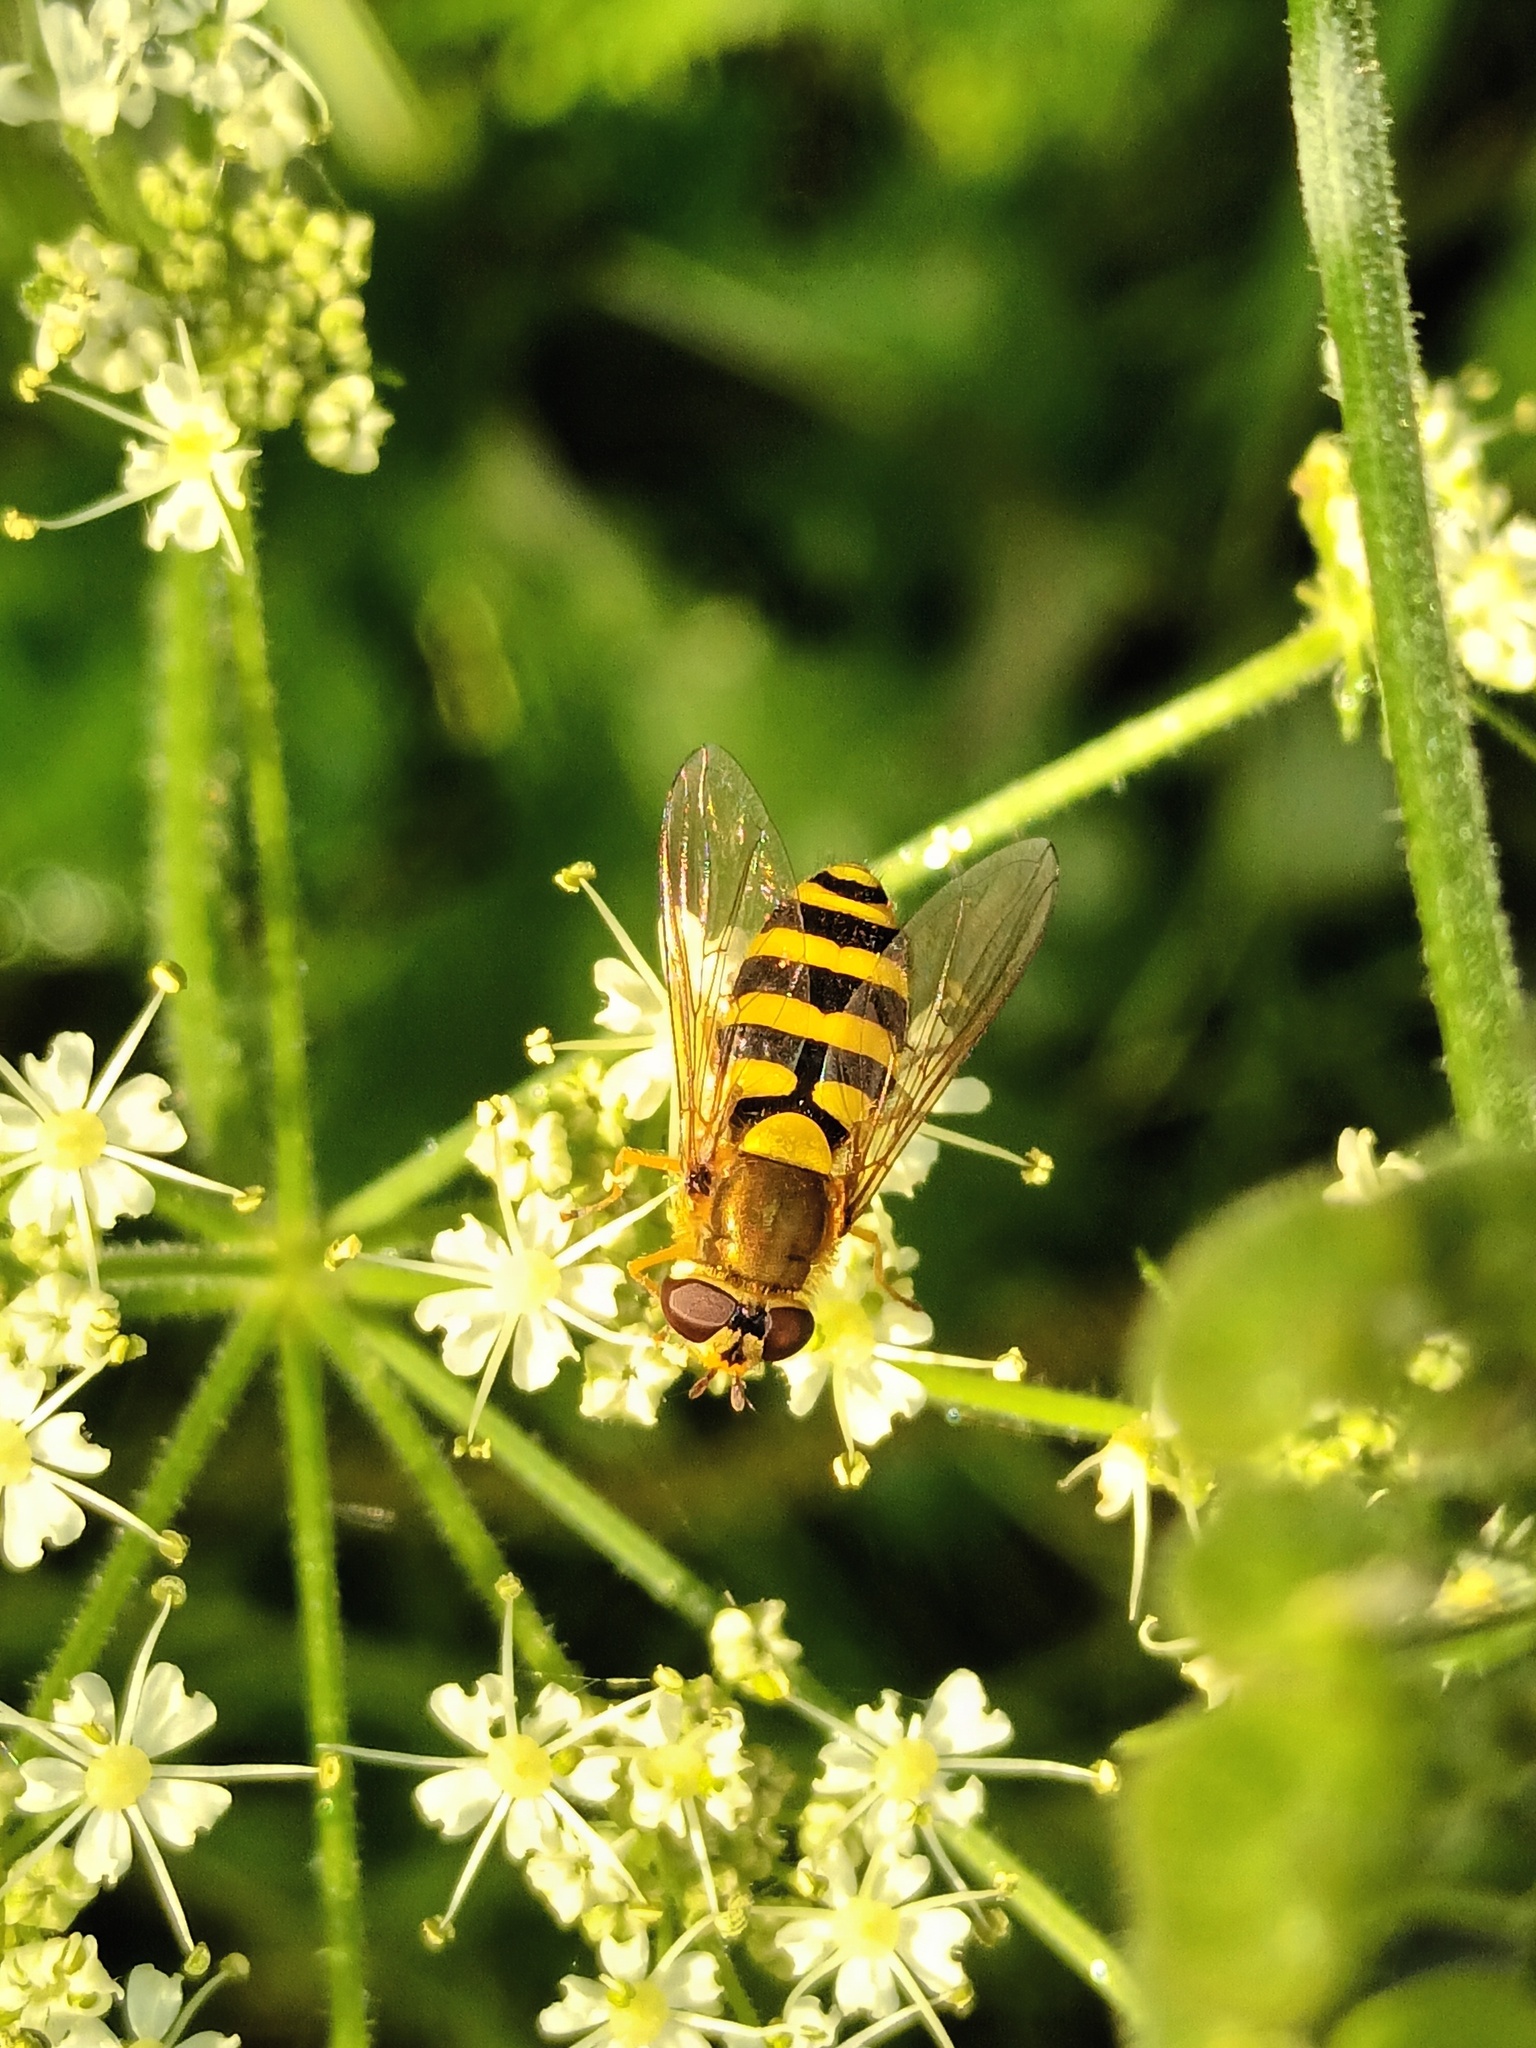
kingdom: Animalia
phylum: Arthropoda
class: Insecta
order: Diptera
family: Syrphidae
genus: Syrphus
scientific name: Syrphus ribesii
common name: Common flower fly
